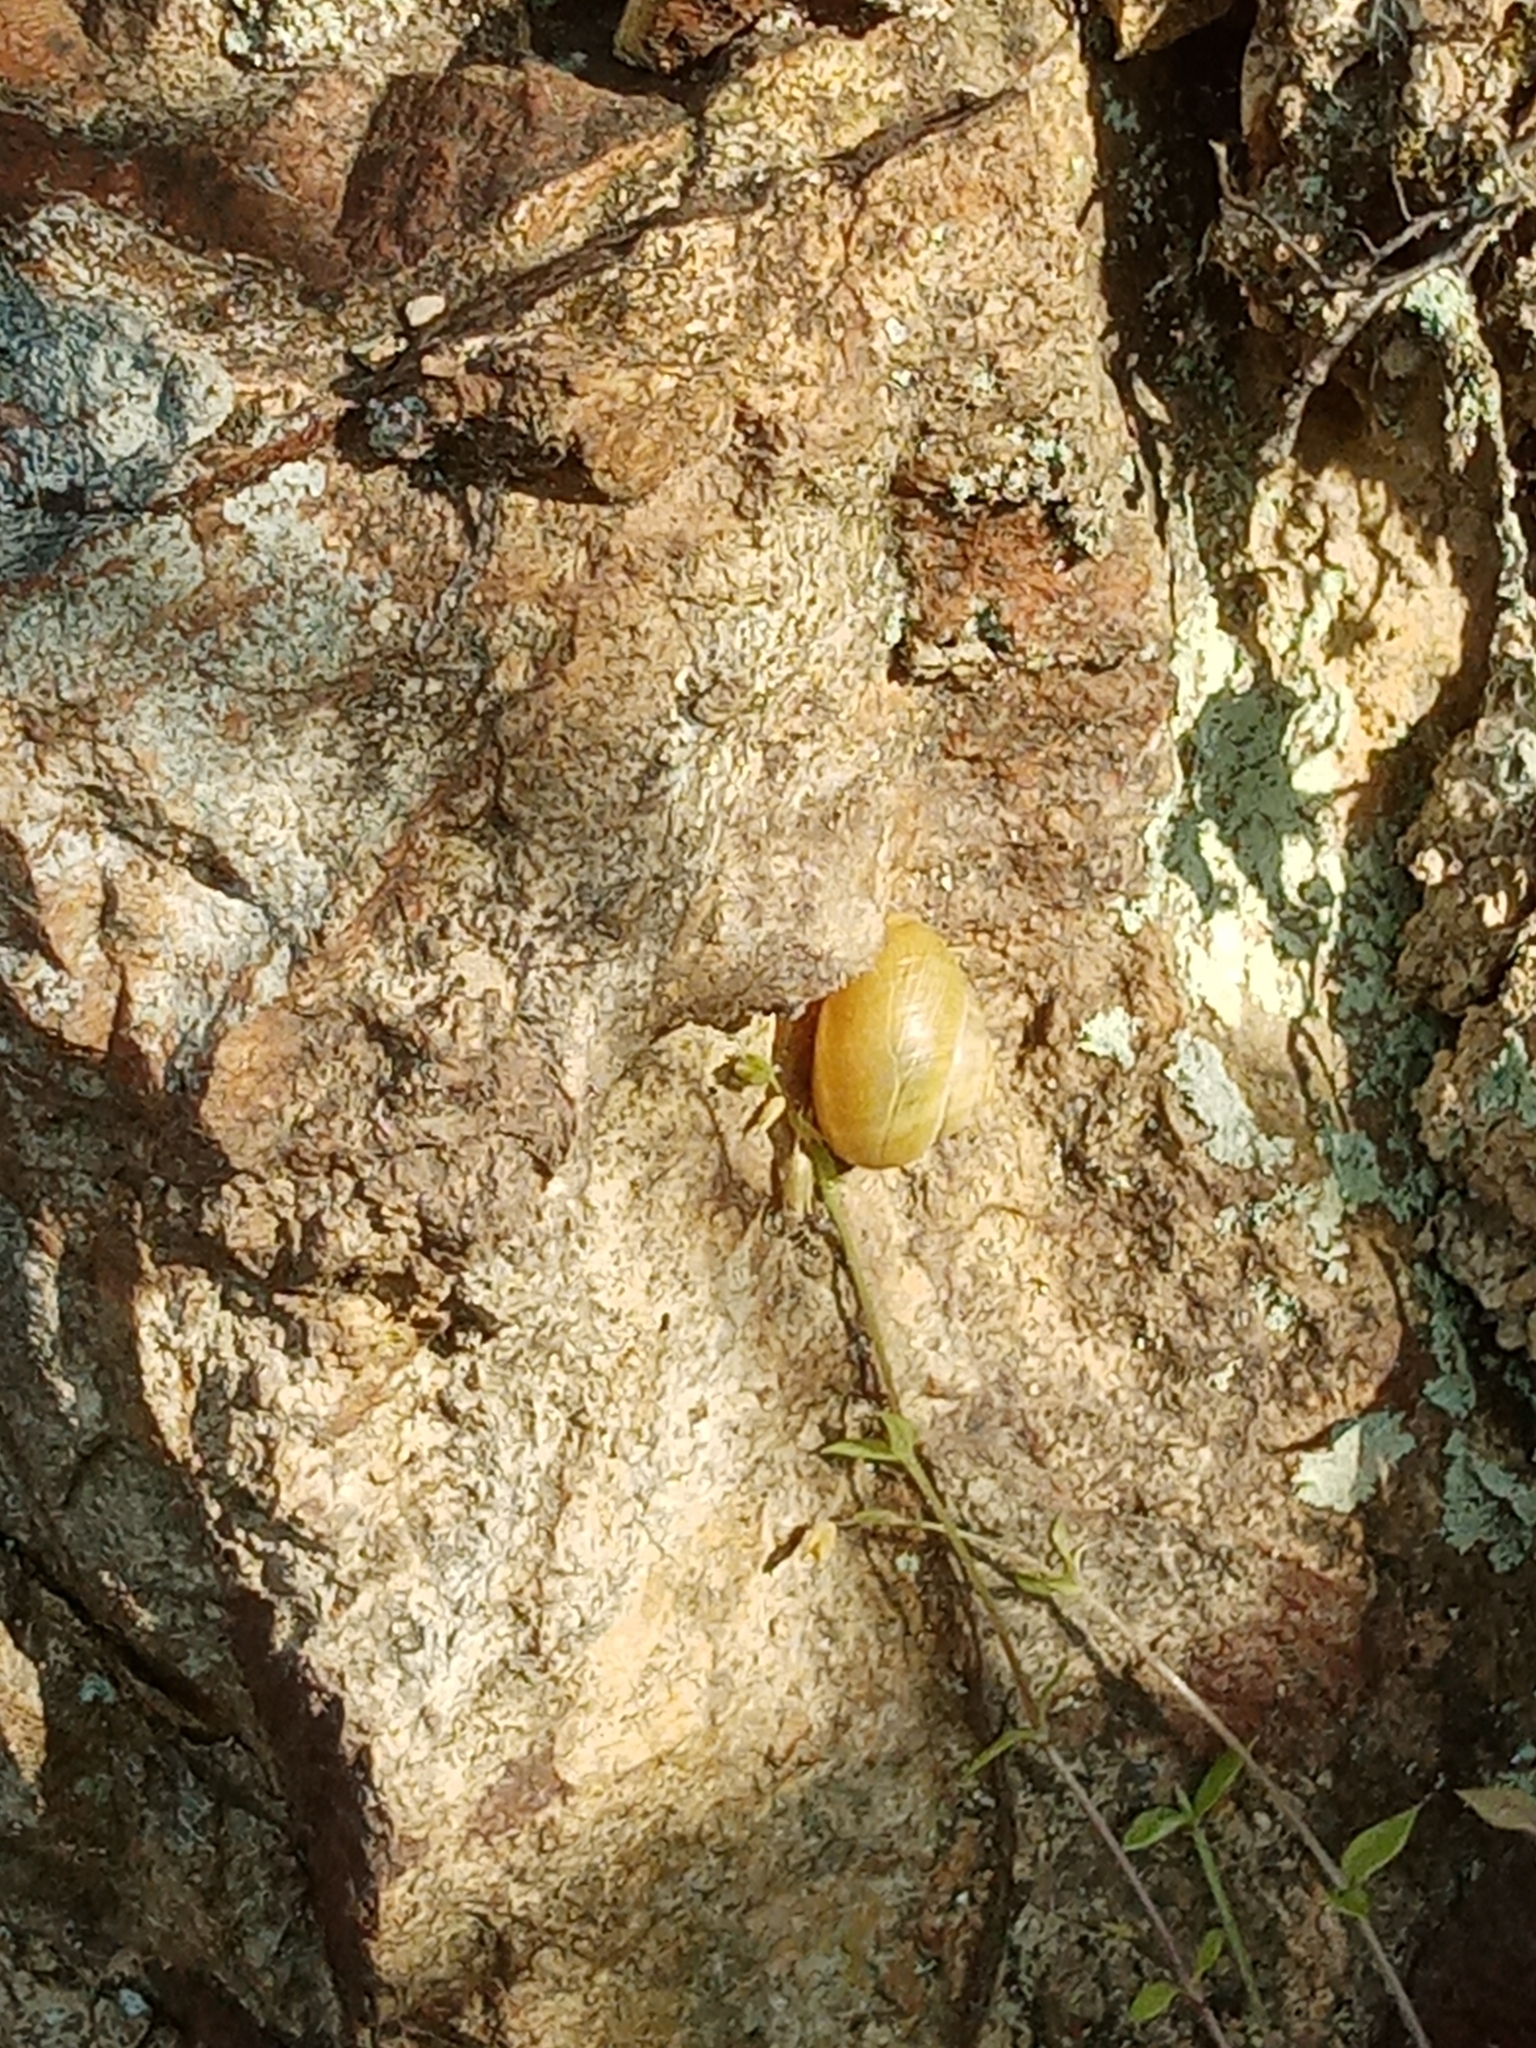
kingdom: Animalia
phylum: Mollusca
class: Gastropoda
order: Stylommatophora
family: Helicidae
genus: Cepaea
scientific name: Cepaea hortensis
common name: White-lip gardensnail
